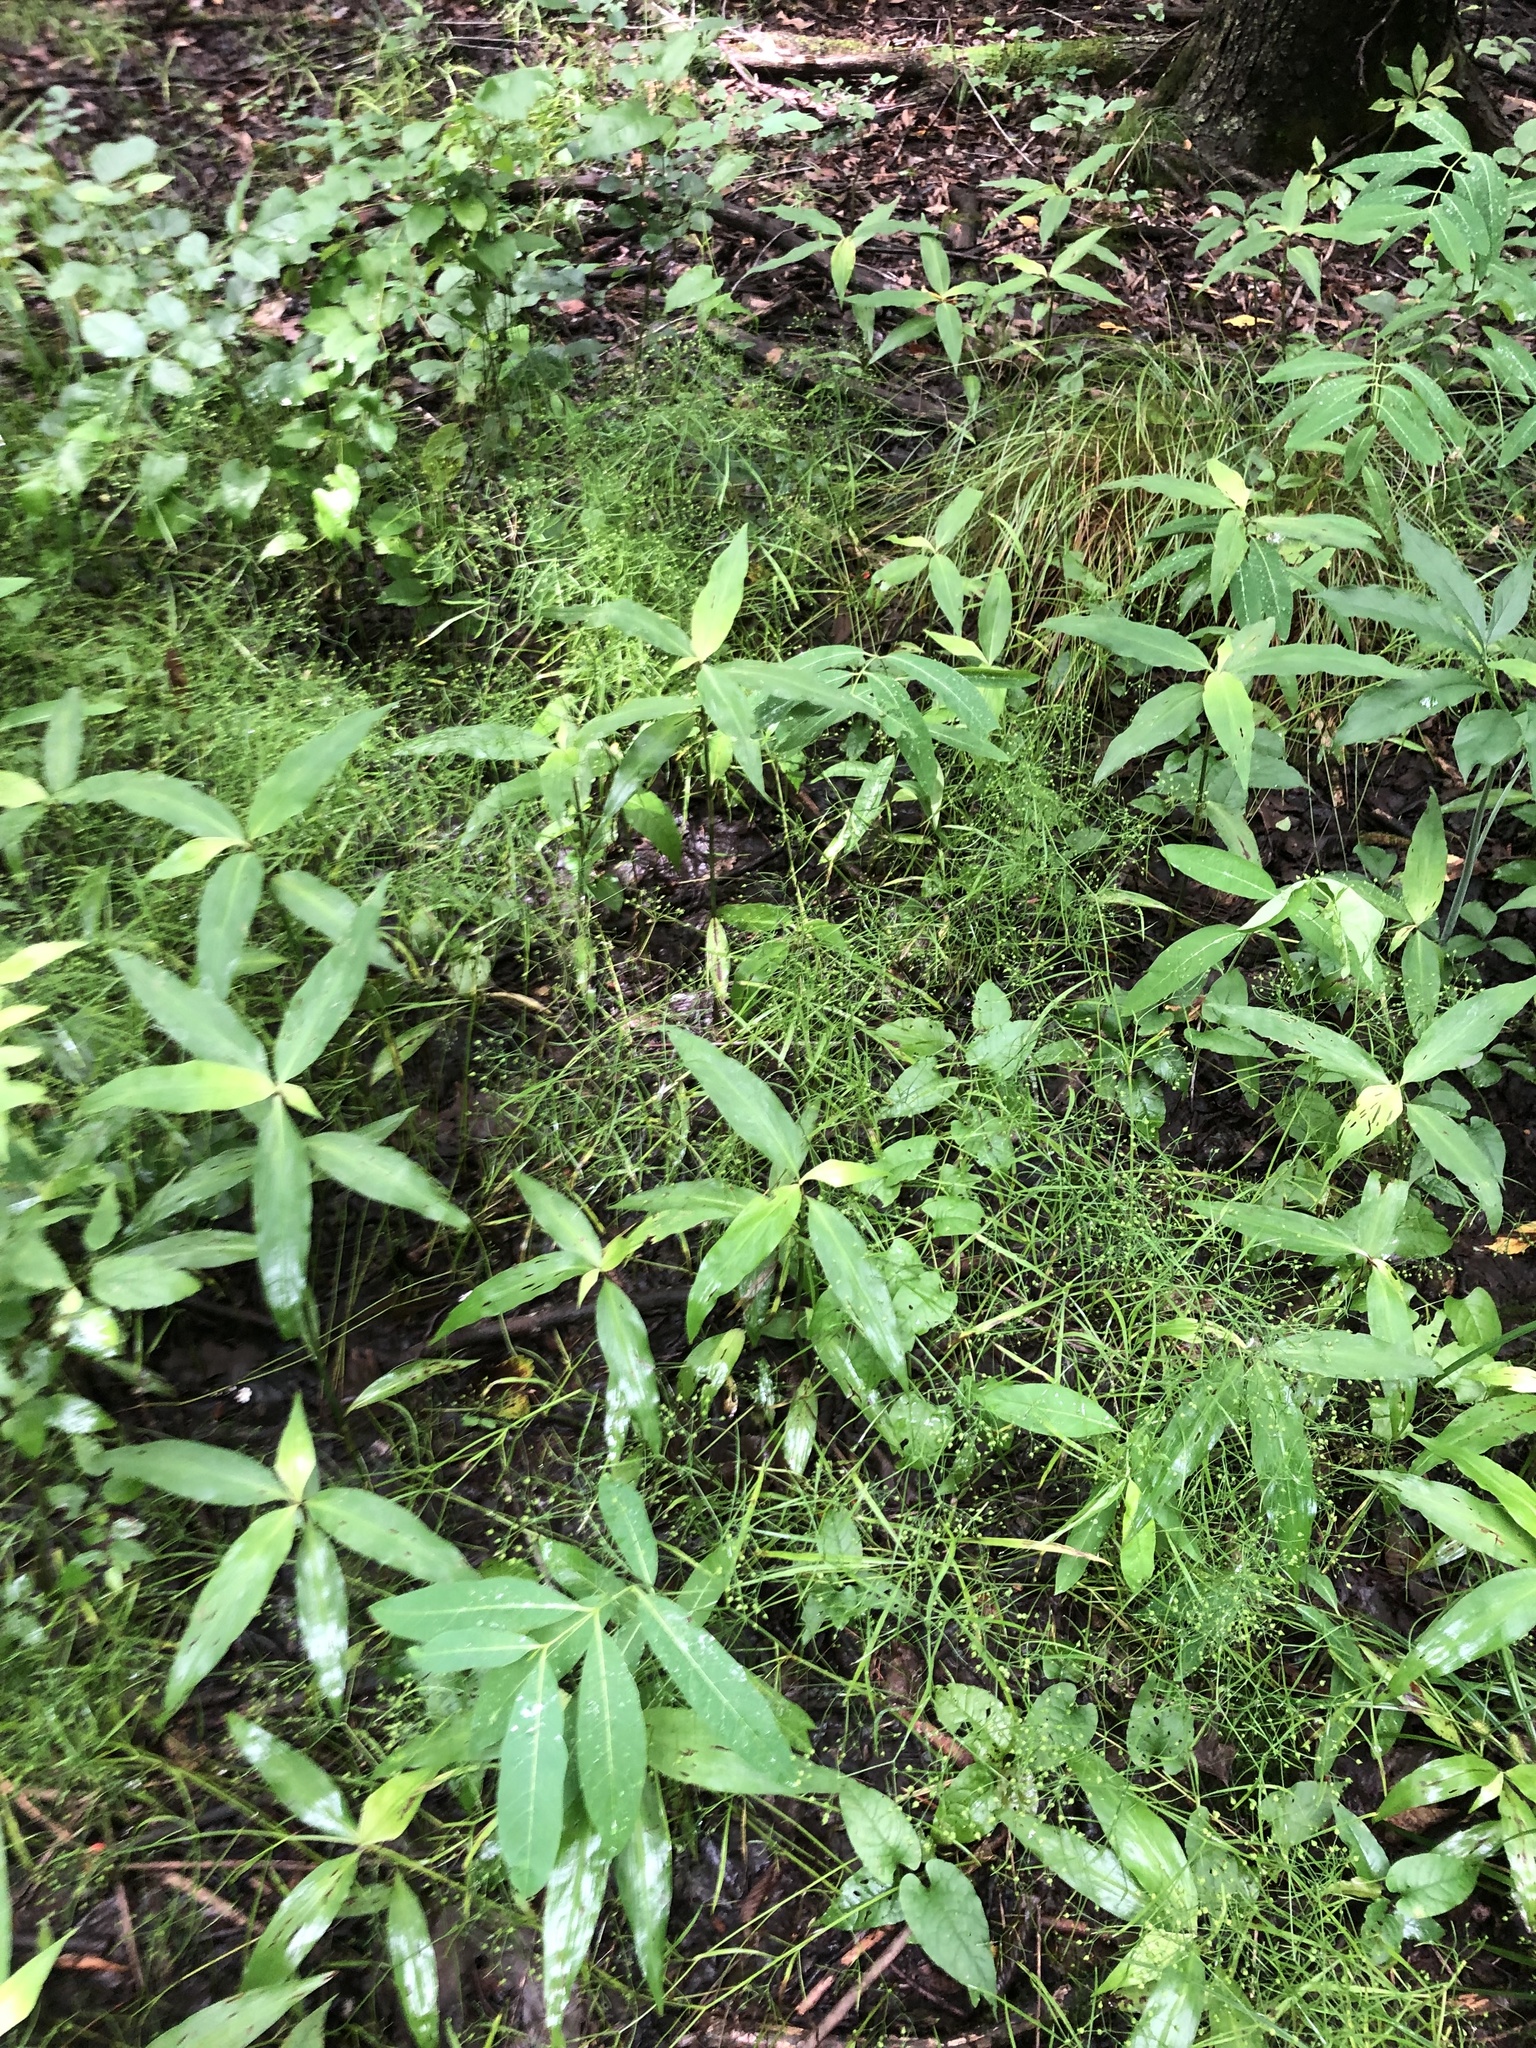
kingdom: Plantae
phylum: Tracheophyta
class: Magnoliopsida
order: Apiales
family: Apiaceae
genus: Cynosciadium
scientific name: Cynosciadium digitatum
